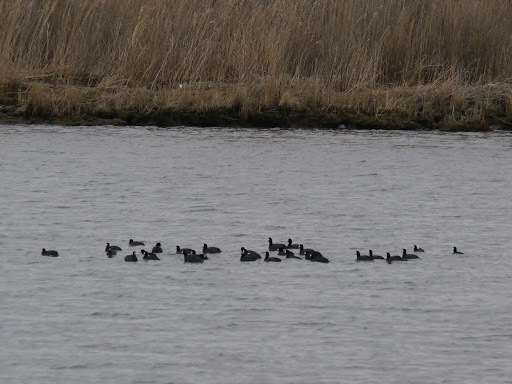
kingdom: Animalia
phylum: Chordata
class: Aves
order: Gruiformes
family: Rallidae
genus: Fulica
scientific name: Fulica americana
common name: American coot
